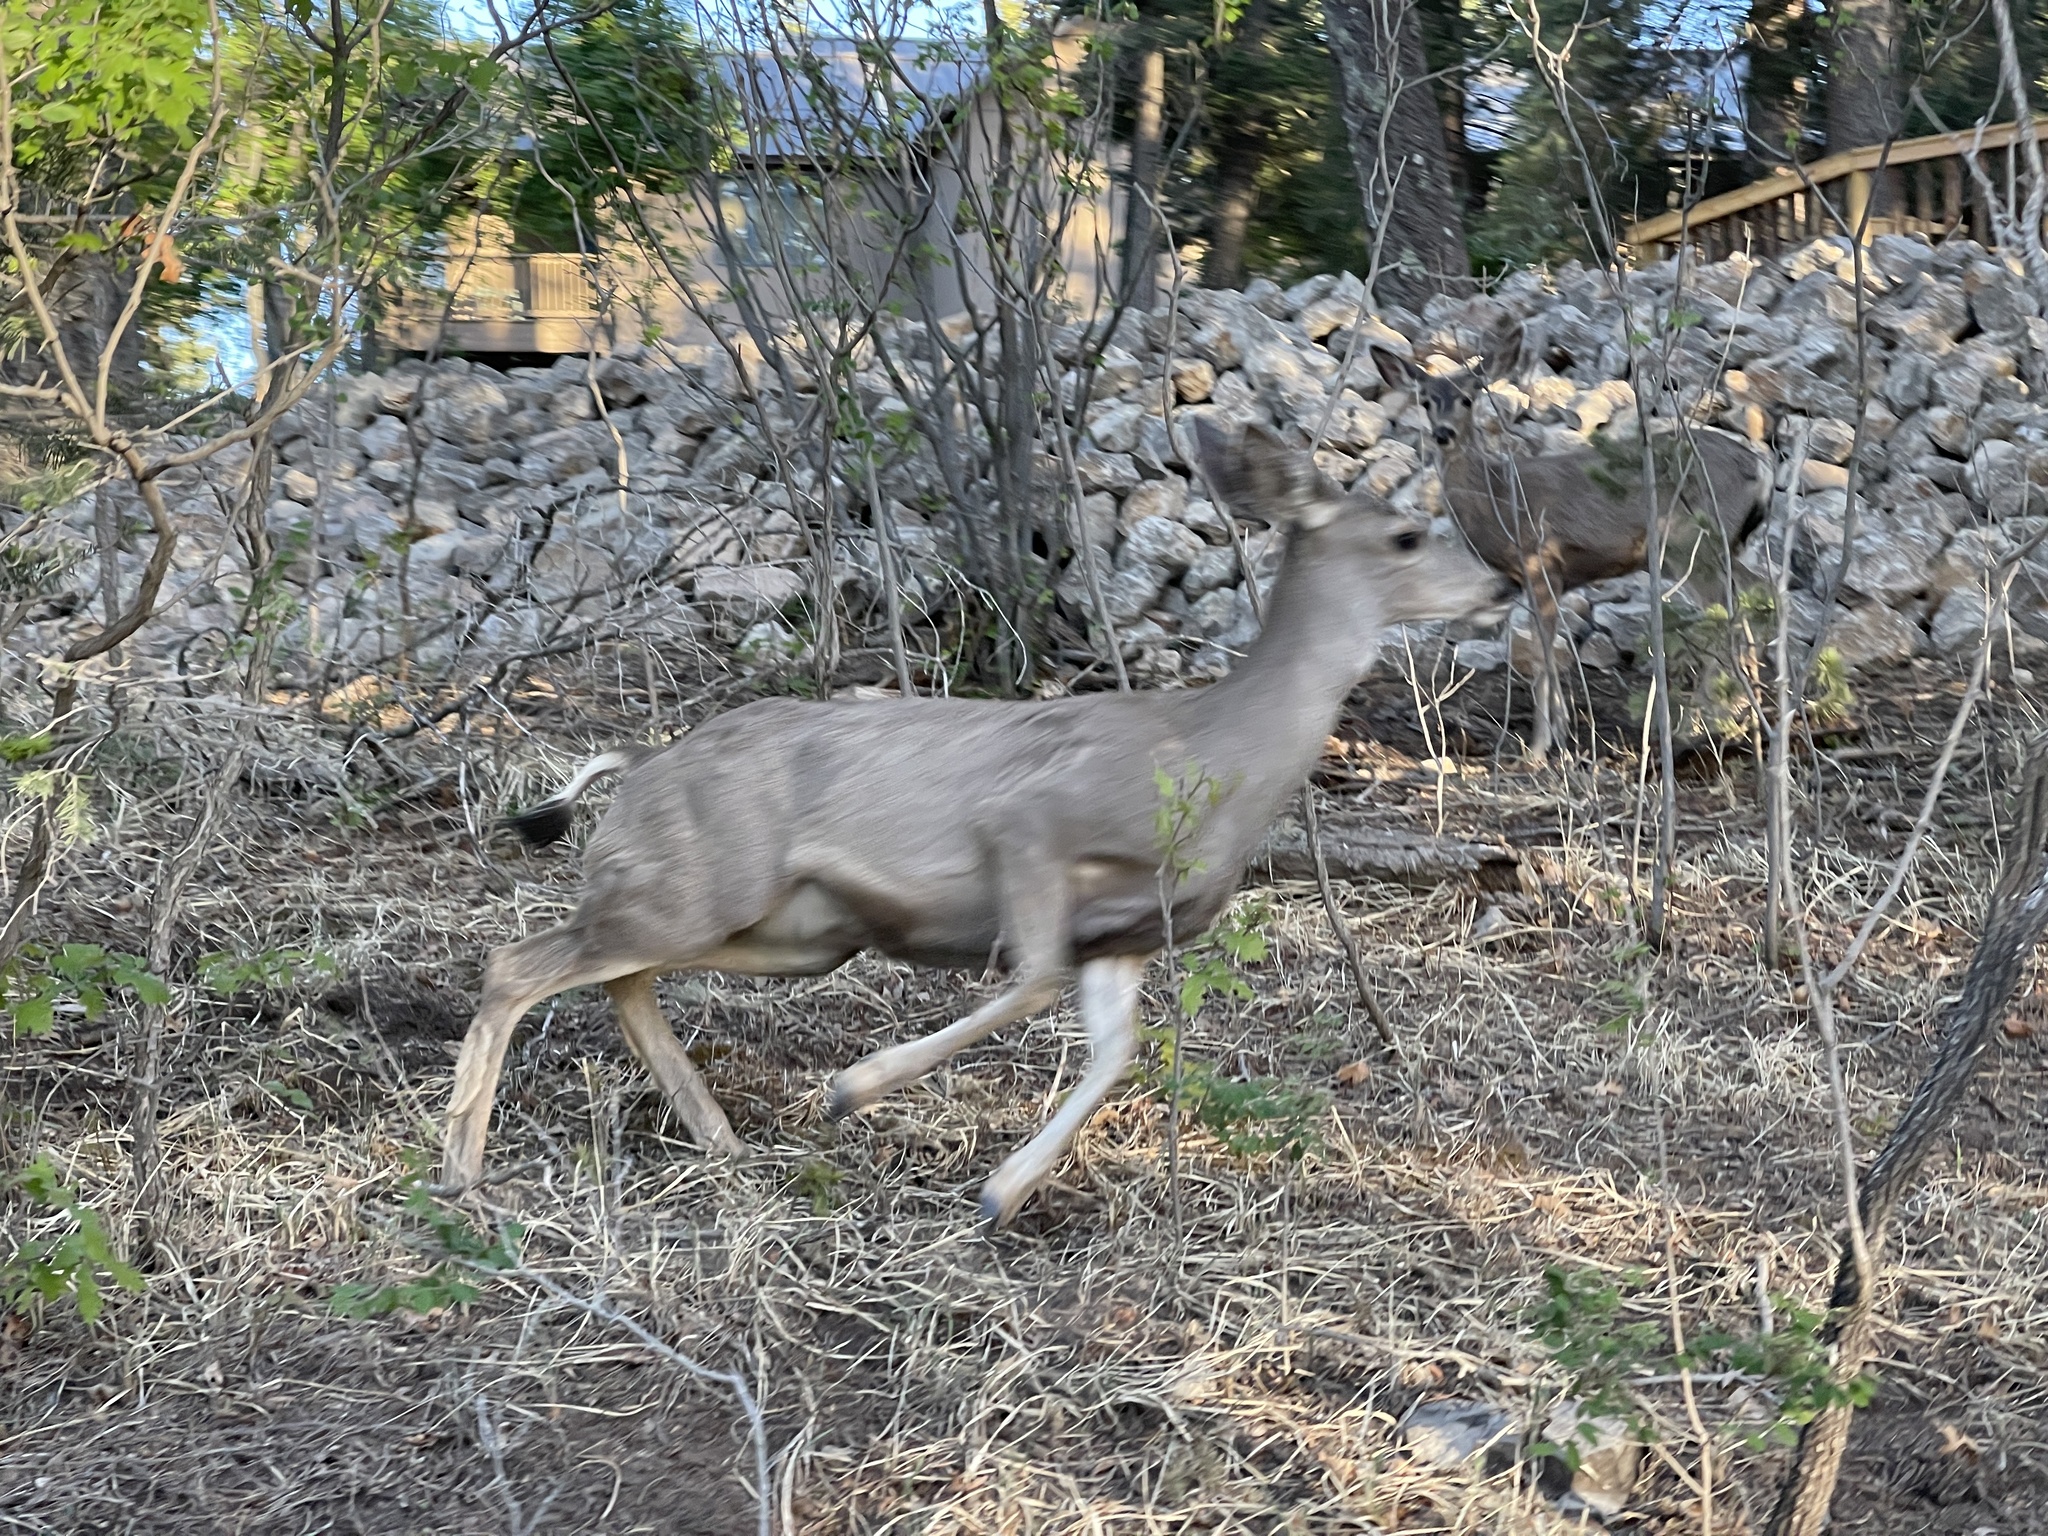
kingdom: Animalia
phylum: Chordata
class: Mammalia
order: Artiodactyla
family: Cervidae
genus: Odocoileus
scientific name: Odocoileus hemionus
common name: Mule deer
